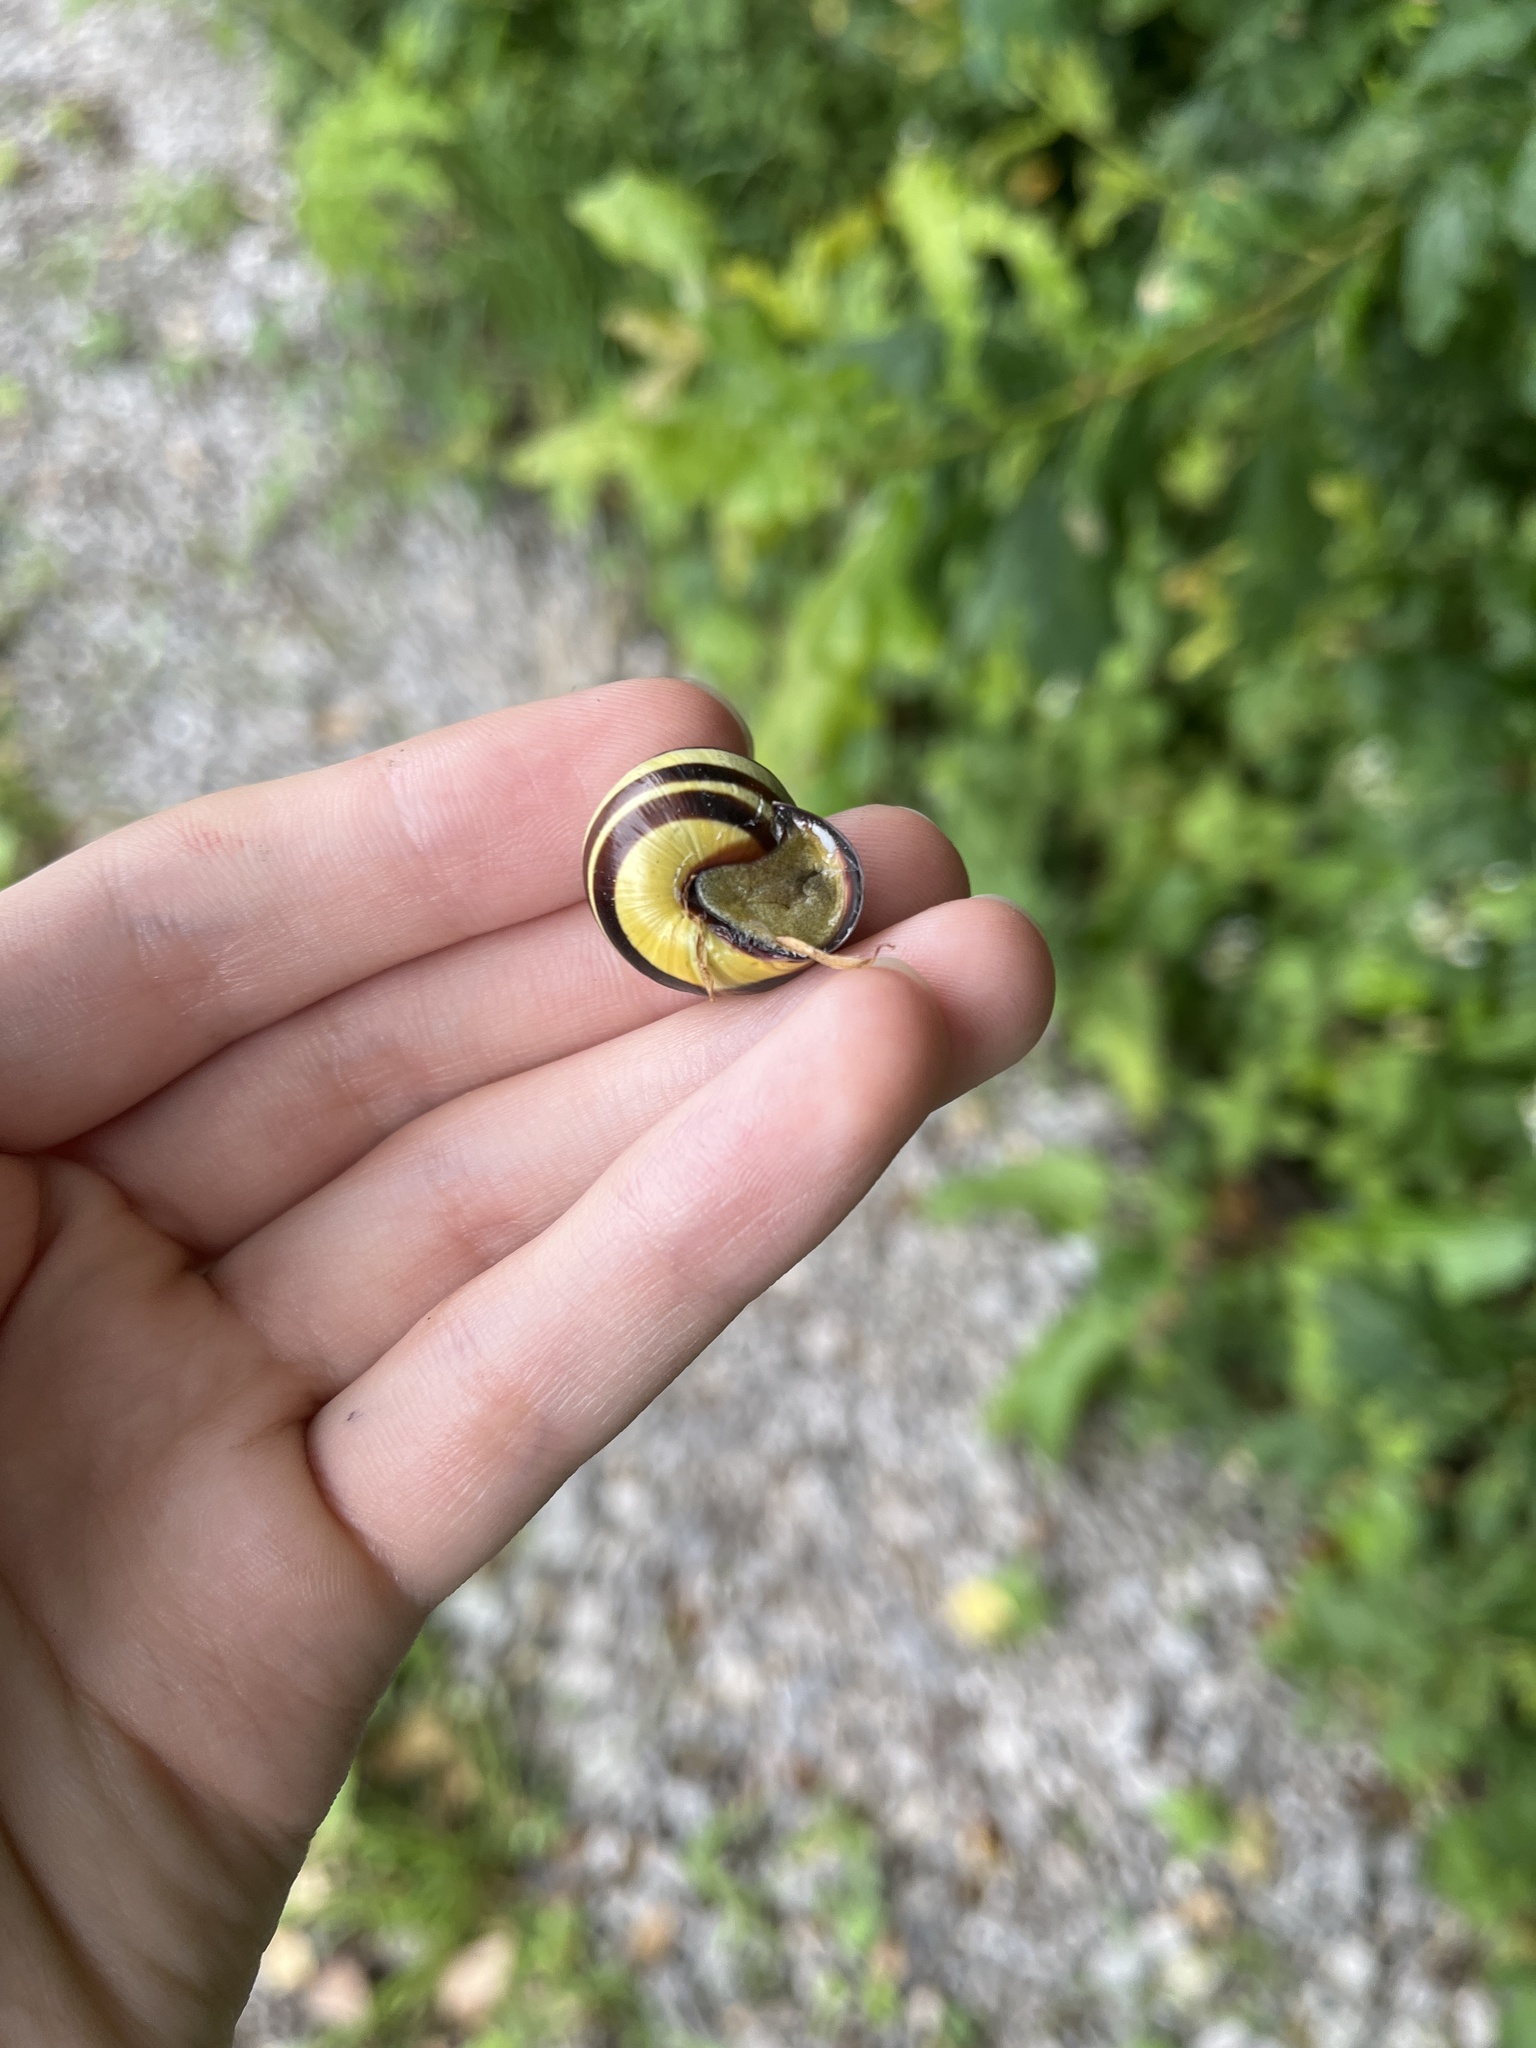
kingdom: Animalia
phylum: Mollusca
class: Gastropoda
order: Stylommatophora
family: Helicidae
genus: Cepaea
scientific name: Cepaea nemoralis
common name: Grovesnail
